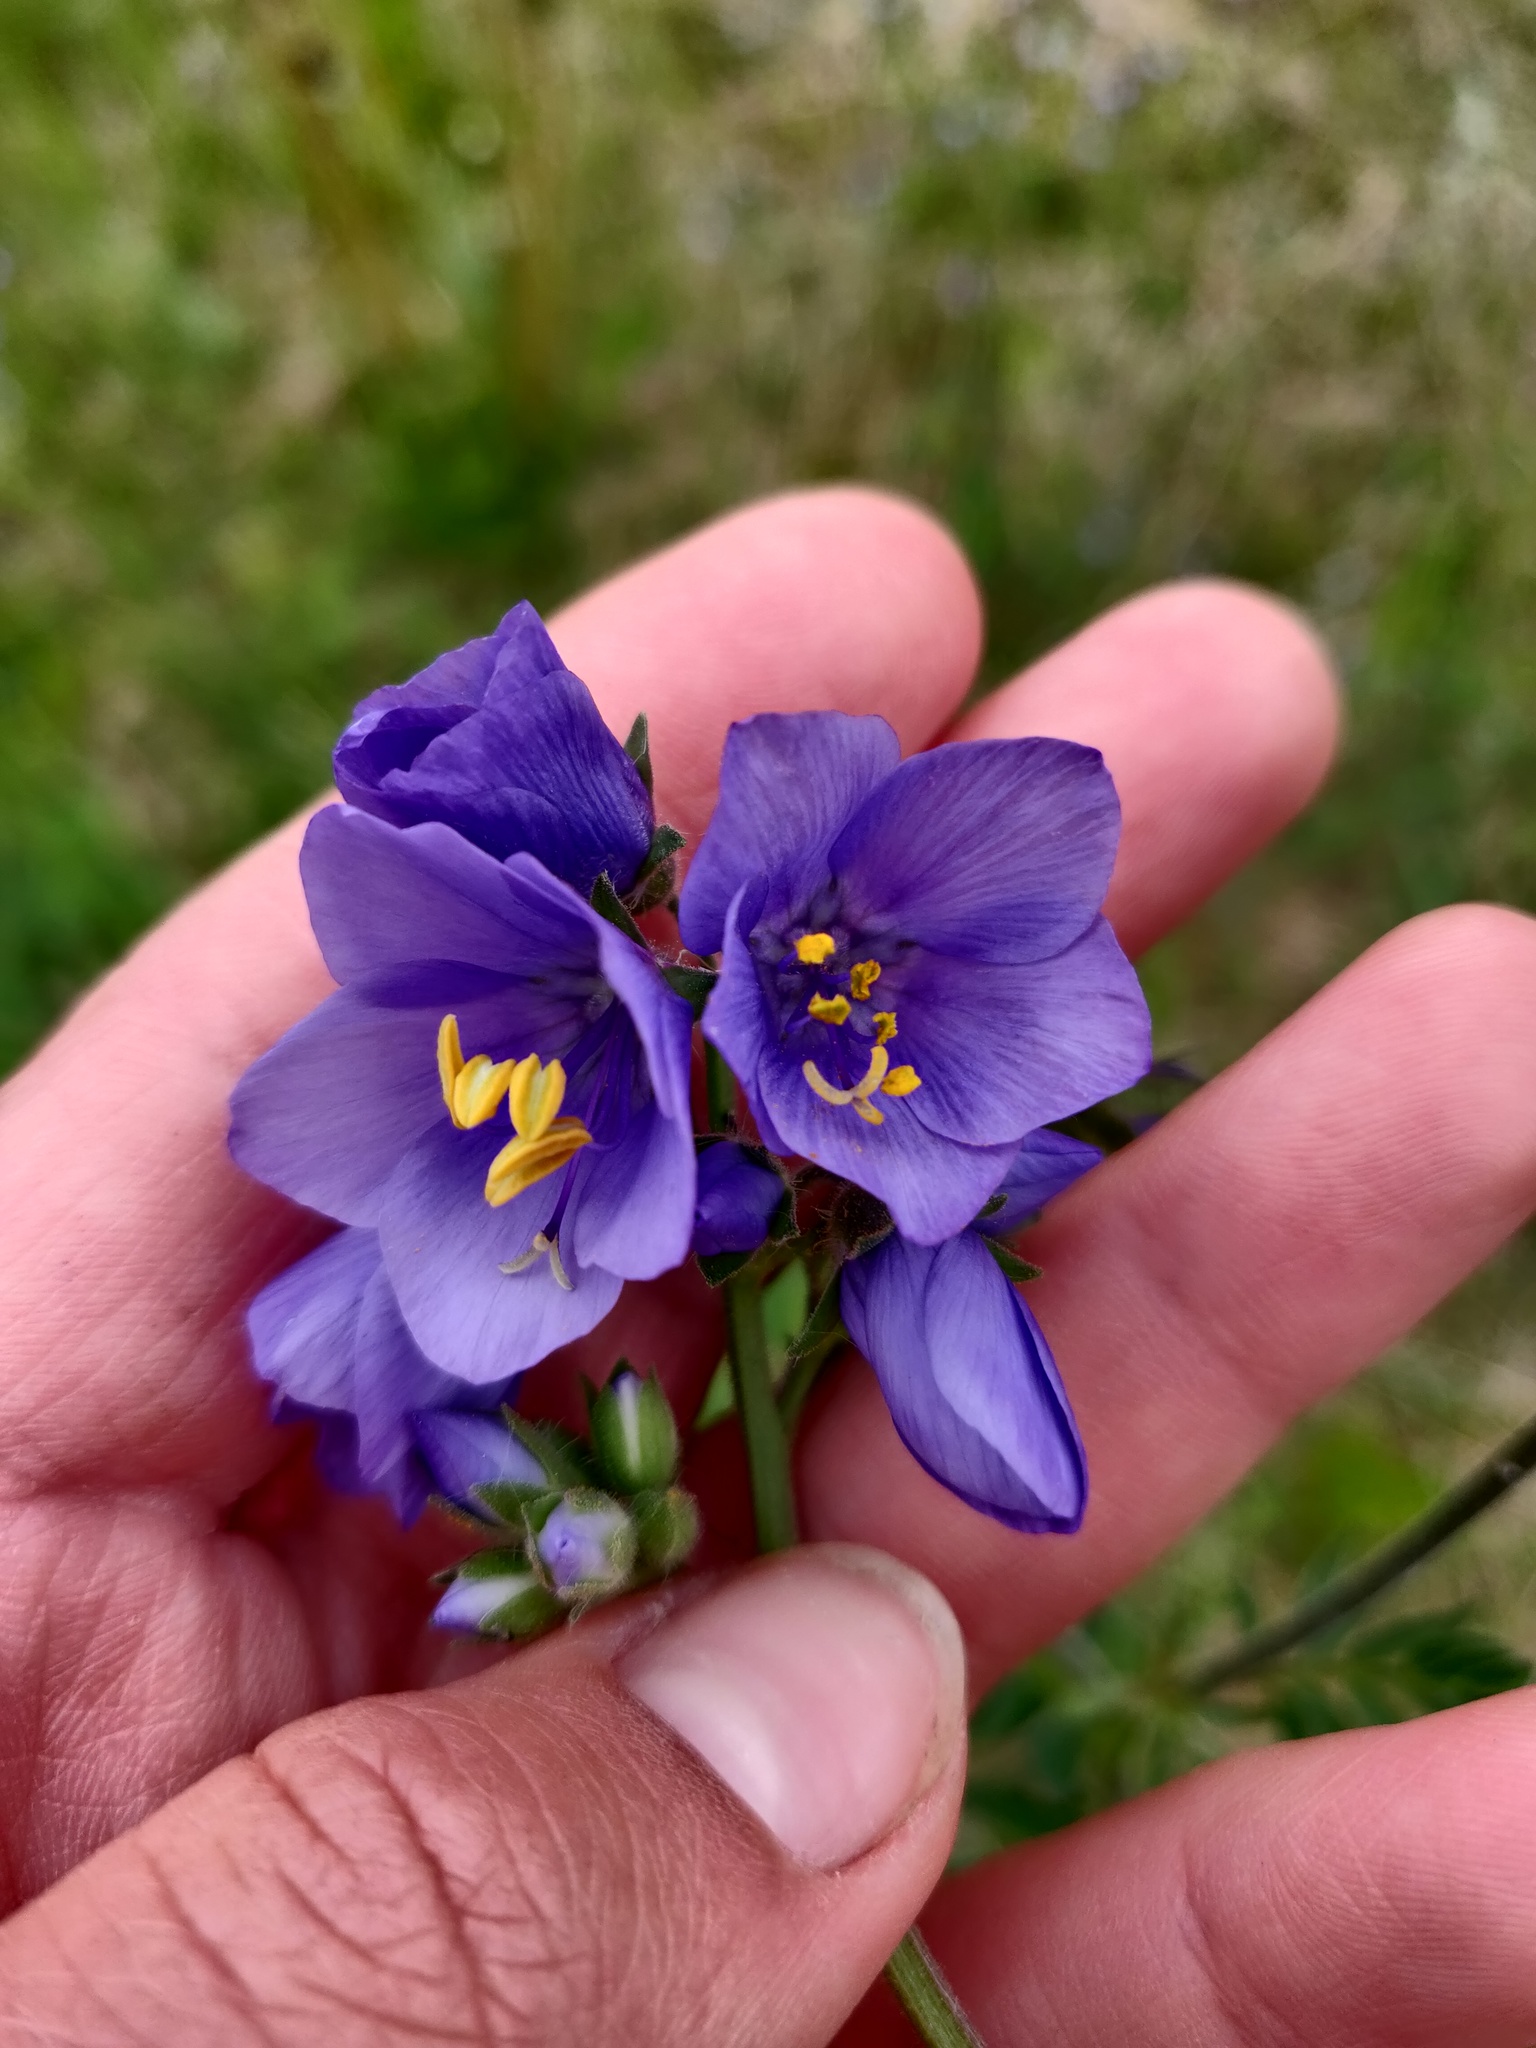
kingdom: Plantae
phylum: Tracheophyta
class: Magnoliopsida
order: Ericales
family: Polemoniaceae
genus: Polemonium
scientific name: Polemonium caeruleum
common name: Jacob's-ladder
